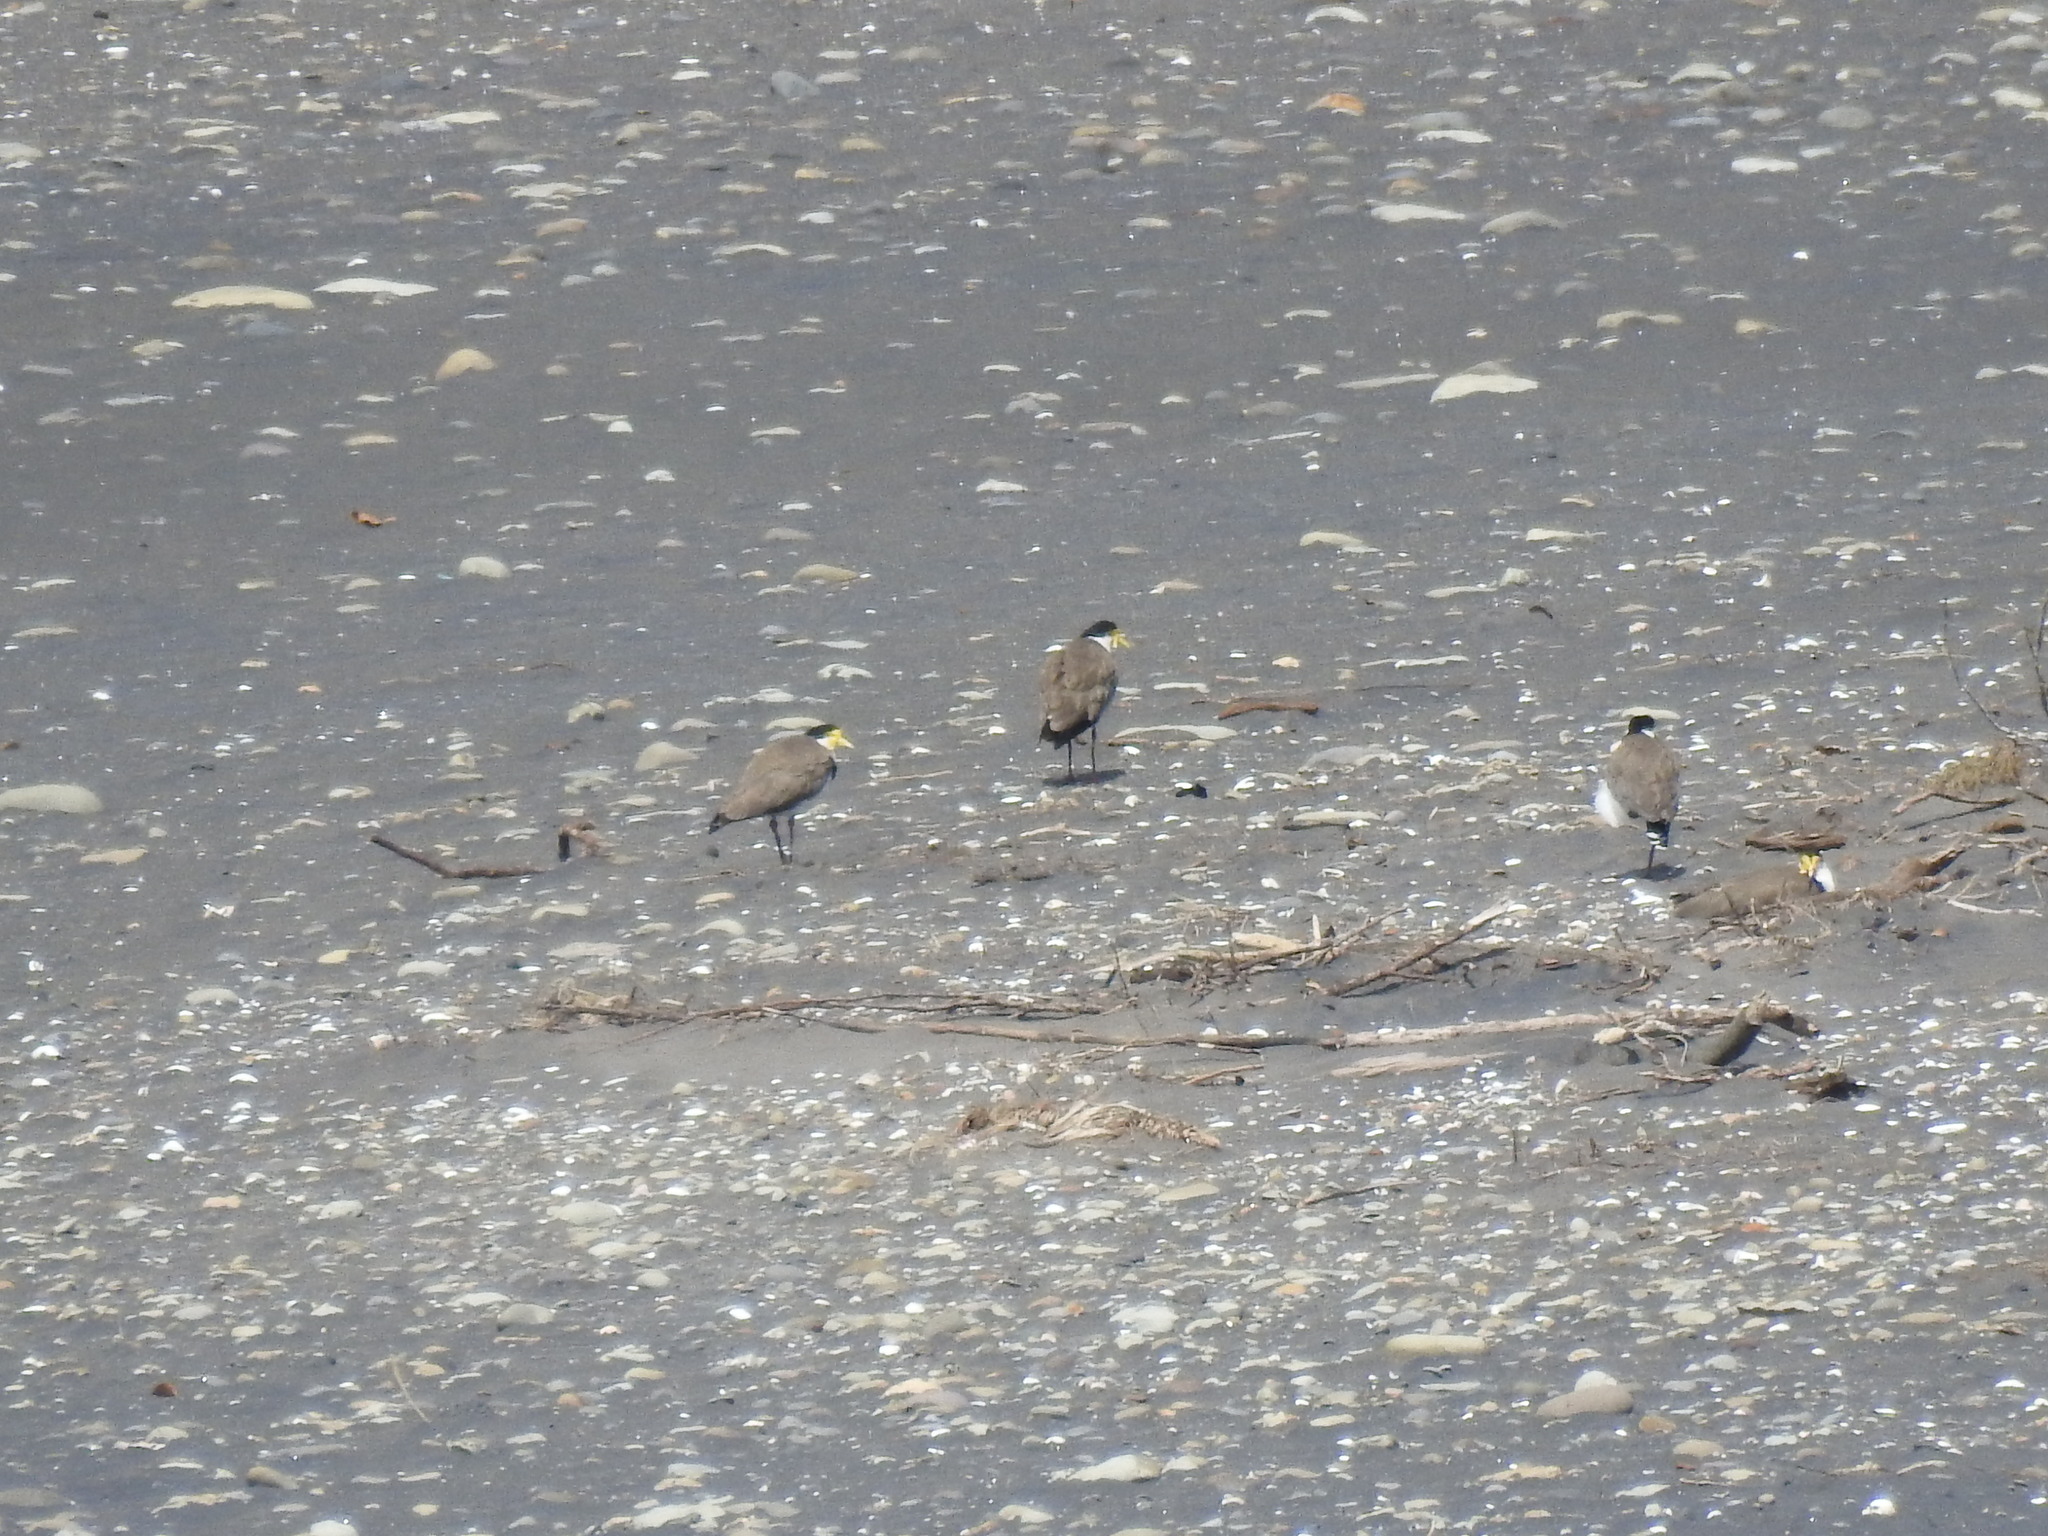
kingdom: Animalia
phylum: Chordata
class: Aves
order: Charadriiformes
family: Charadriidae
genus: Vanellus
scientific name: Vanellus miles
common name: Masked lapwing
